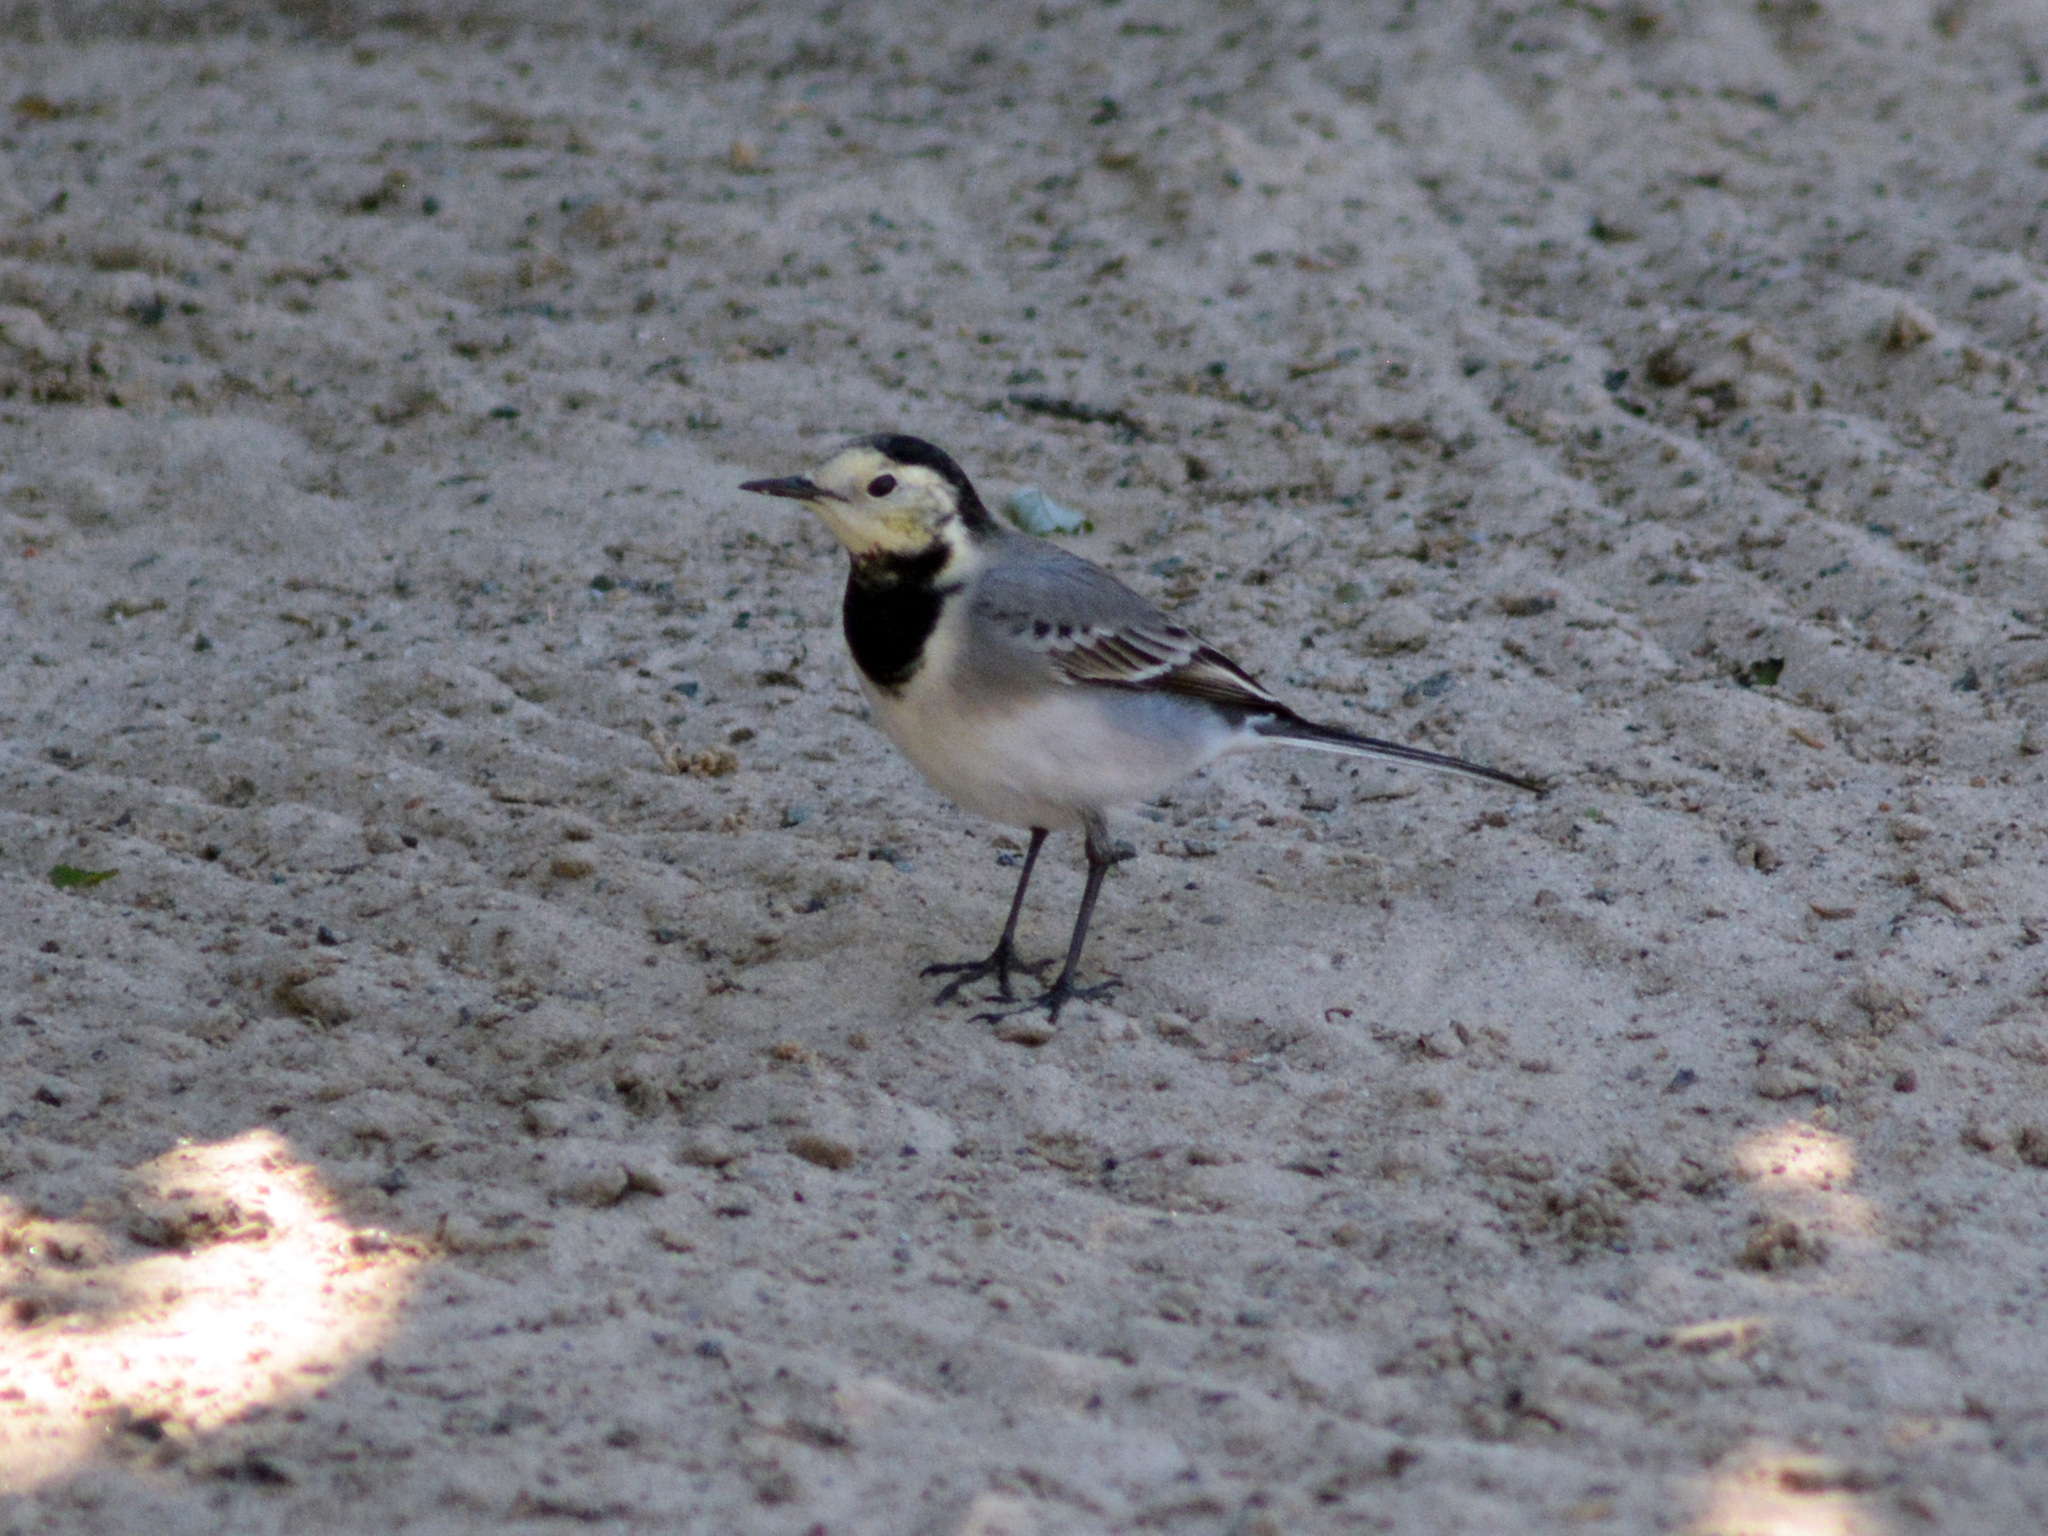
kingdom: Animalia
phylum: Chordata
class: Aves
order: Passeriformes
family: Motacillidae
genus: Motacilla
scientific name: Motacilla alba
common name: White wagtail
